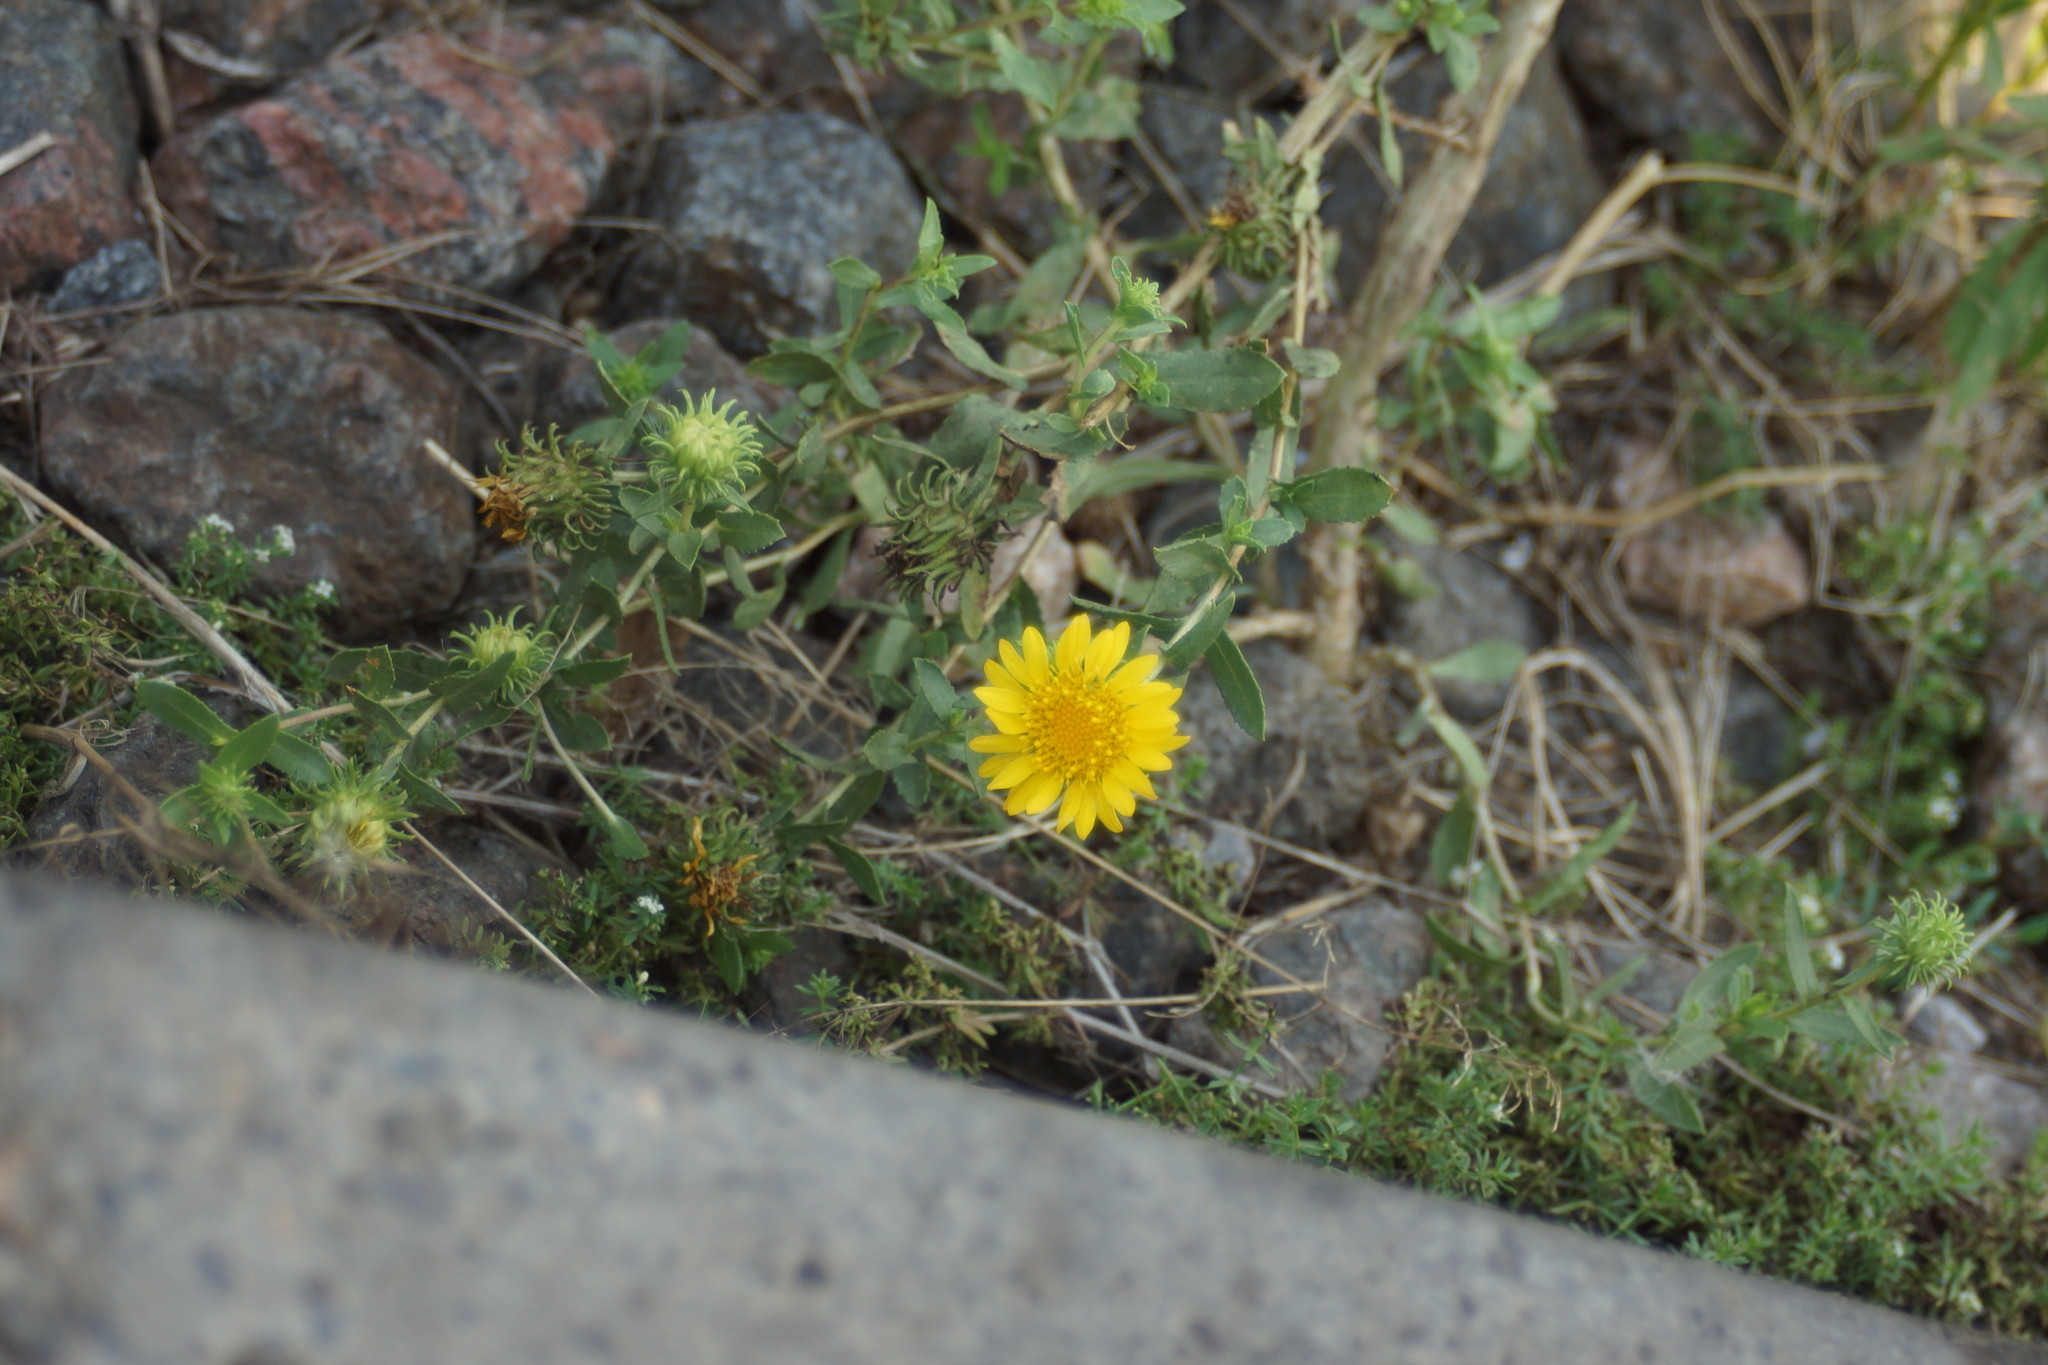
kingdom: Plantae
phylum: Tracheophyta
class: Magnoliopsida
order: Asterales
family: Asteraceae
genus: Grindelia
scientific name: Grindelia squarrosa
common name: Curly-cup gumweed
